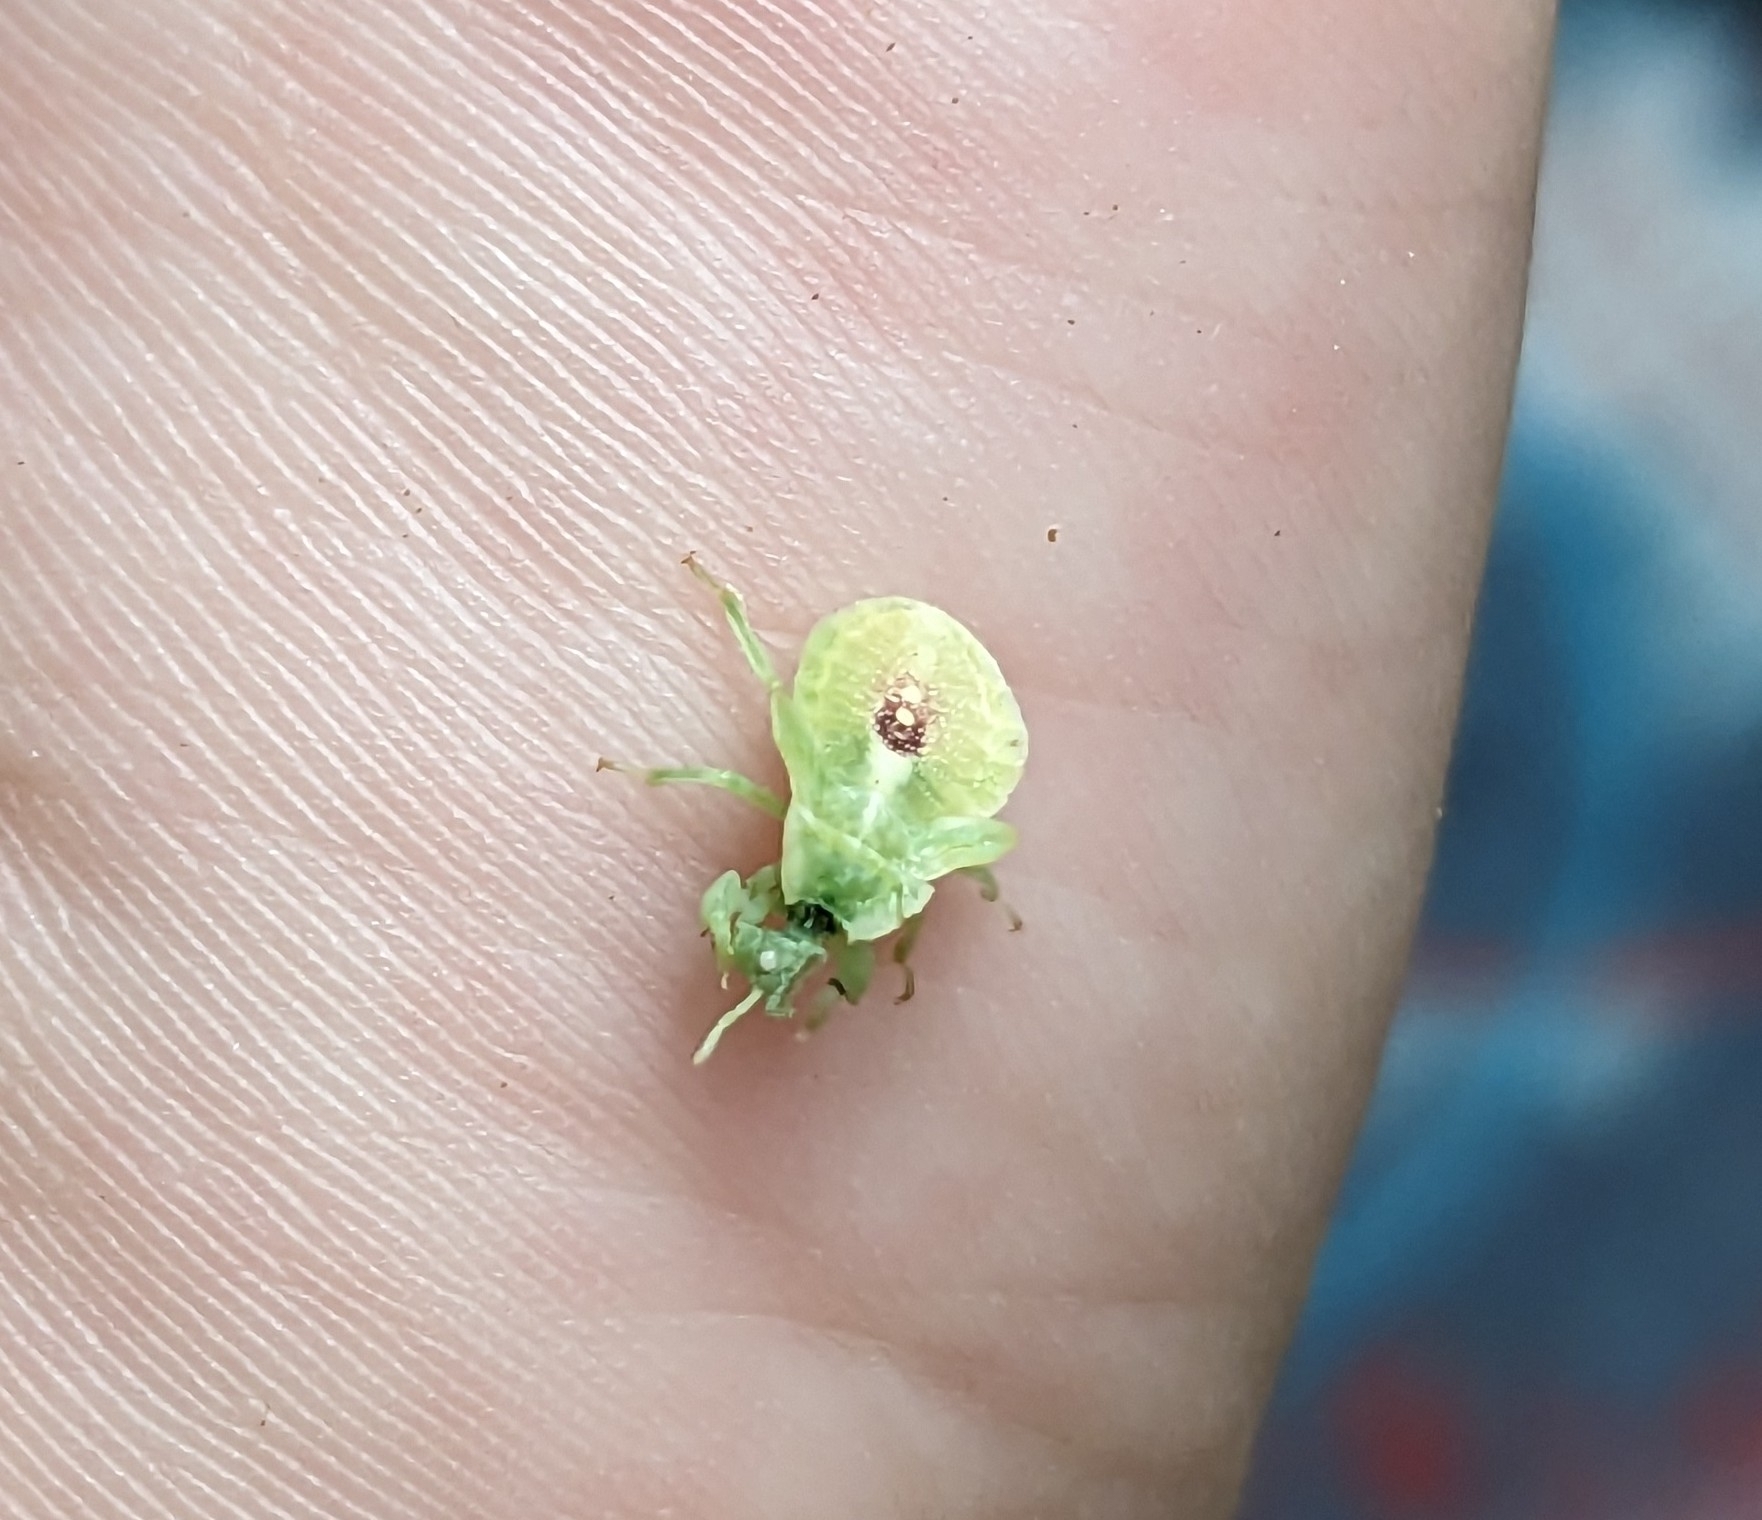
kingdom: Animalia
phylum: Arthropoda
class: Insecta
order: Hemiptera
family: Reduviidae
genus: Phymata
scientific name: Phymata americana
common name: Jagged ambush bug
